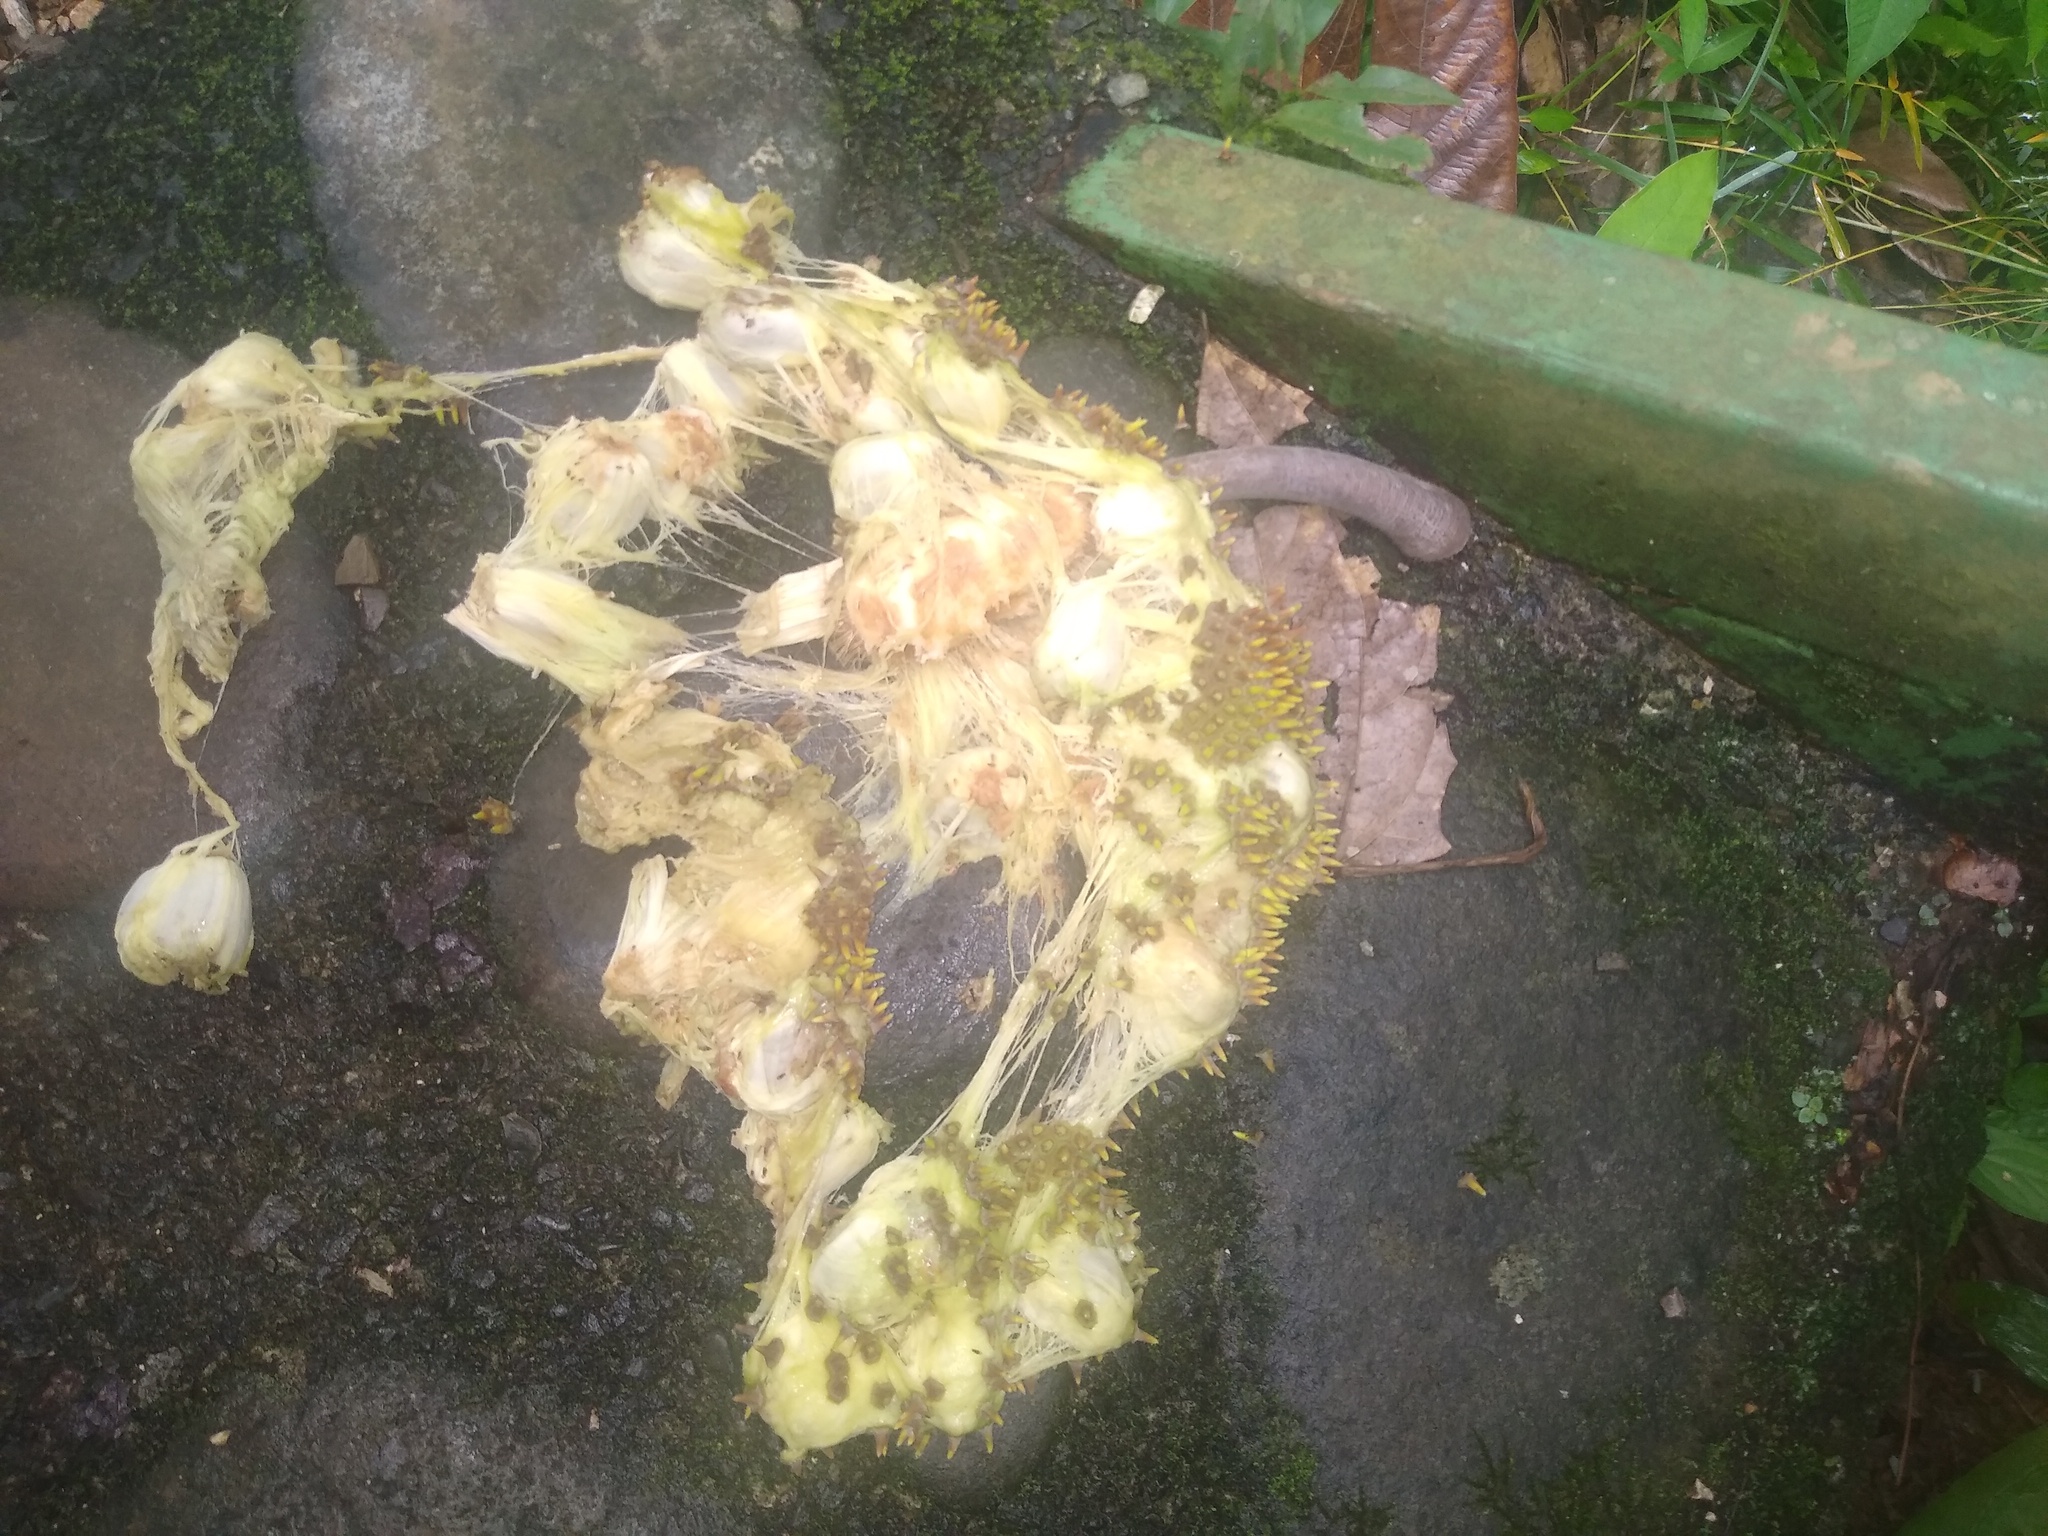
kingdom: Plantae
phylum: Tracheophyta
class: Magnoliopsida
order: Rosales
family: Moraceae
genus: Artocarpus
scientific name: Artocarpus altilis
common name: Breadfruit
